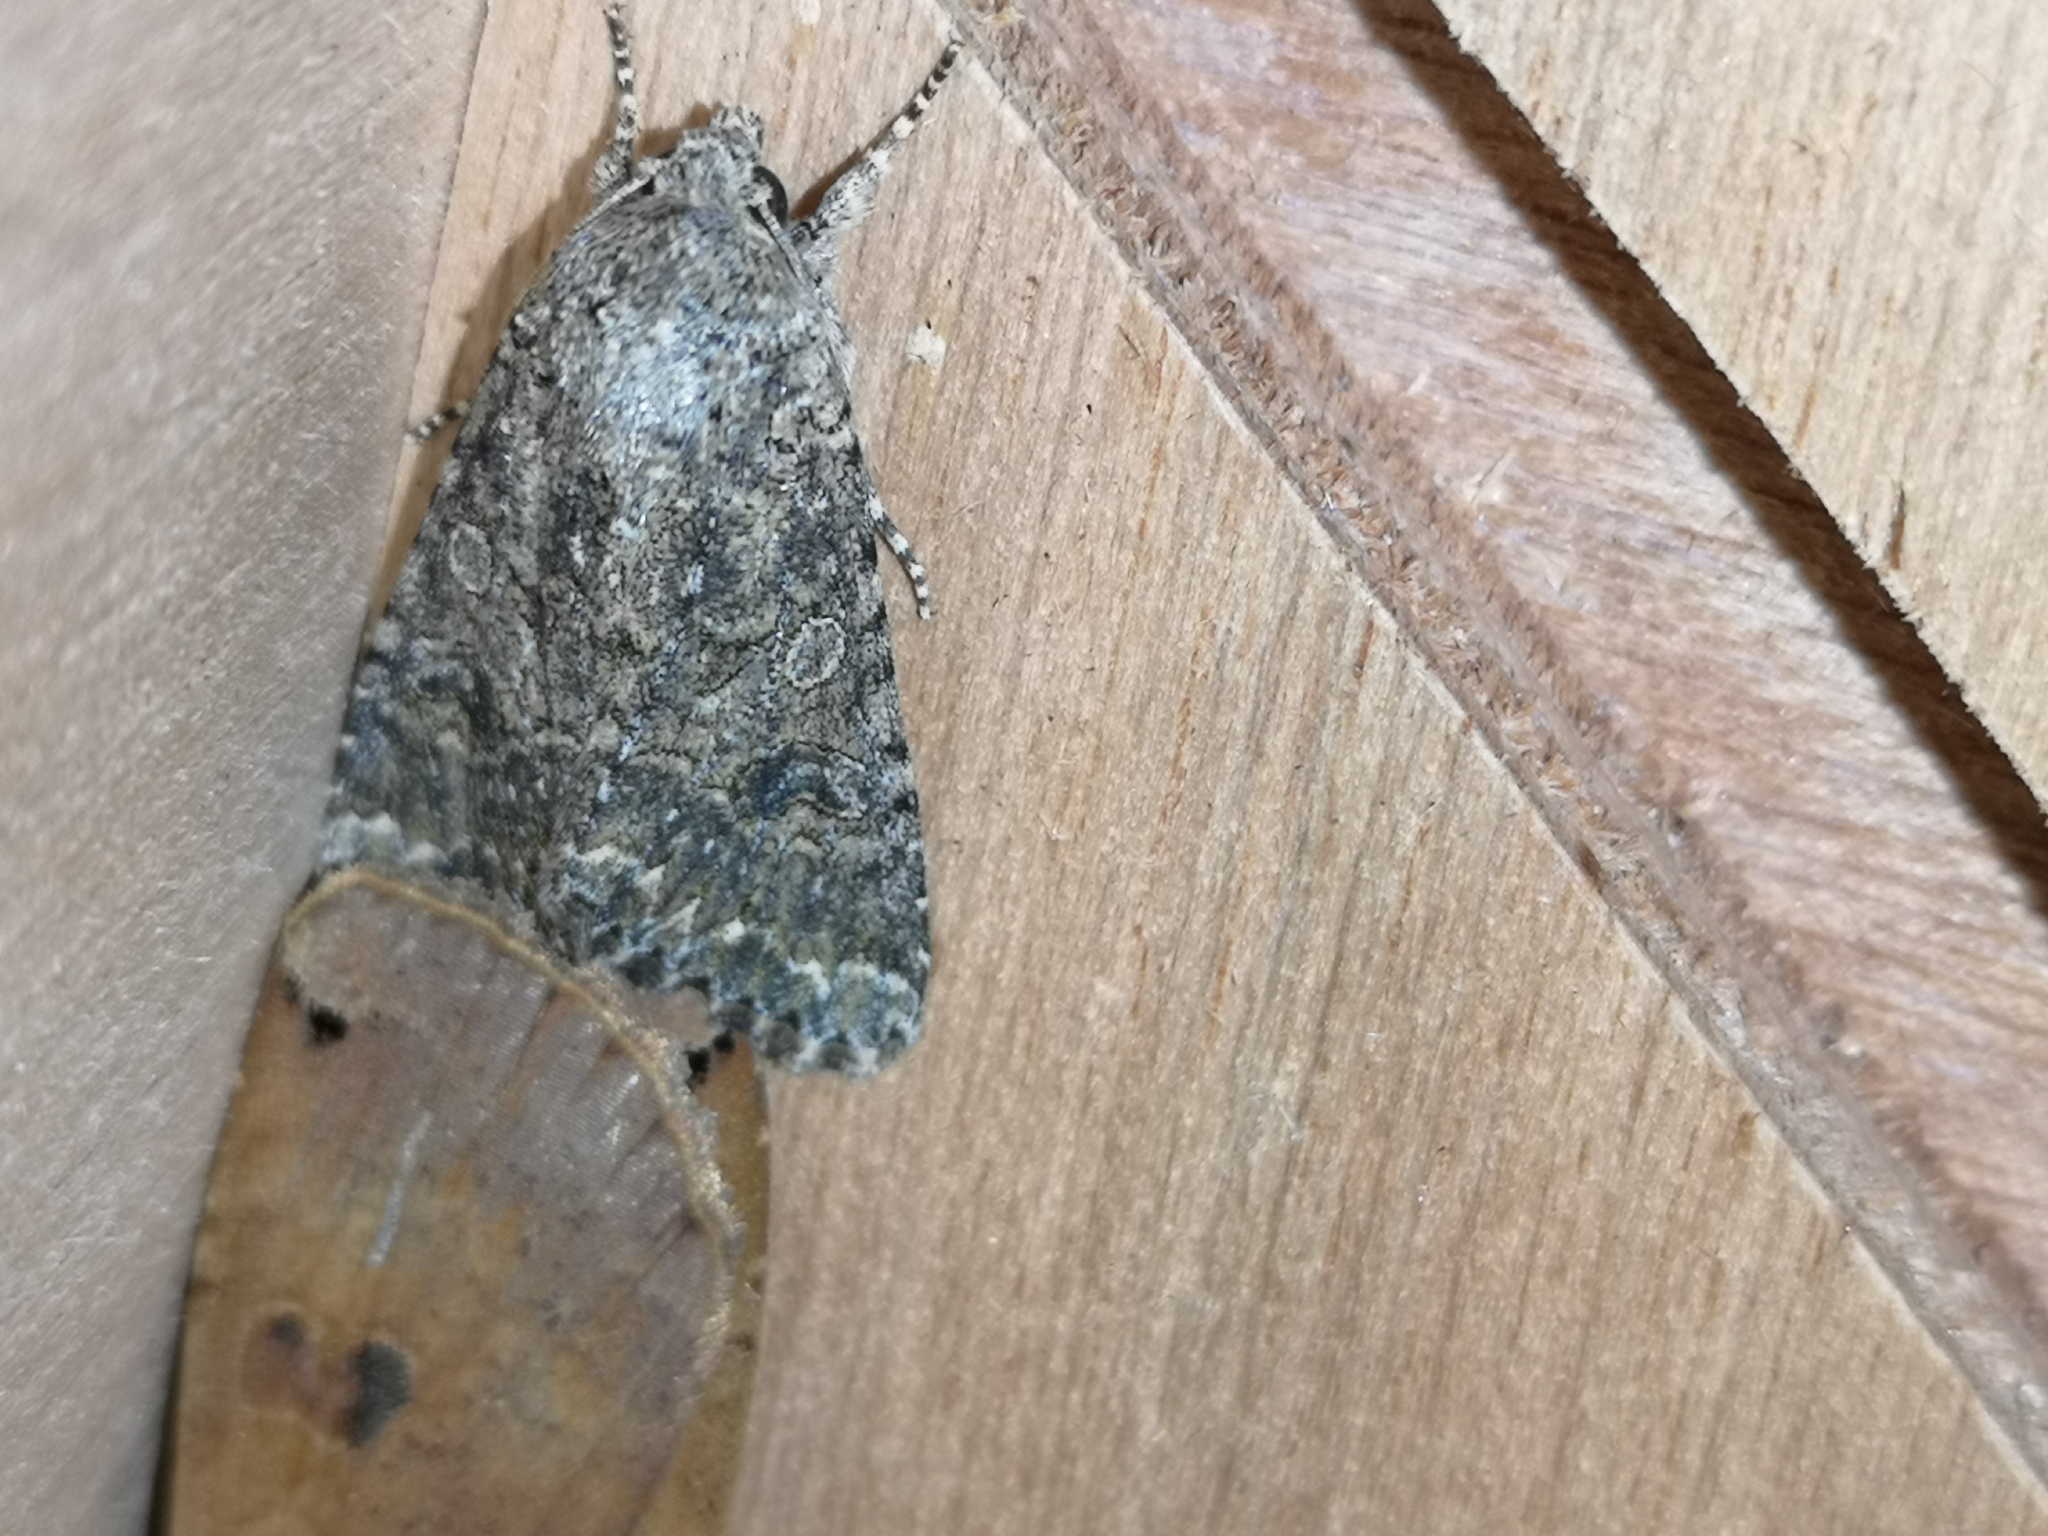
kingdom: Animalia
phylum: Arthropoda
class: Insecta
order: Lepidoptera
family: Noctuidae
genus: Anarta
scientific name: Anarta trifolii
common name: Clover cutworm moth
